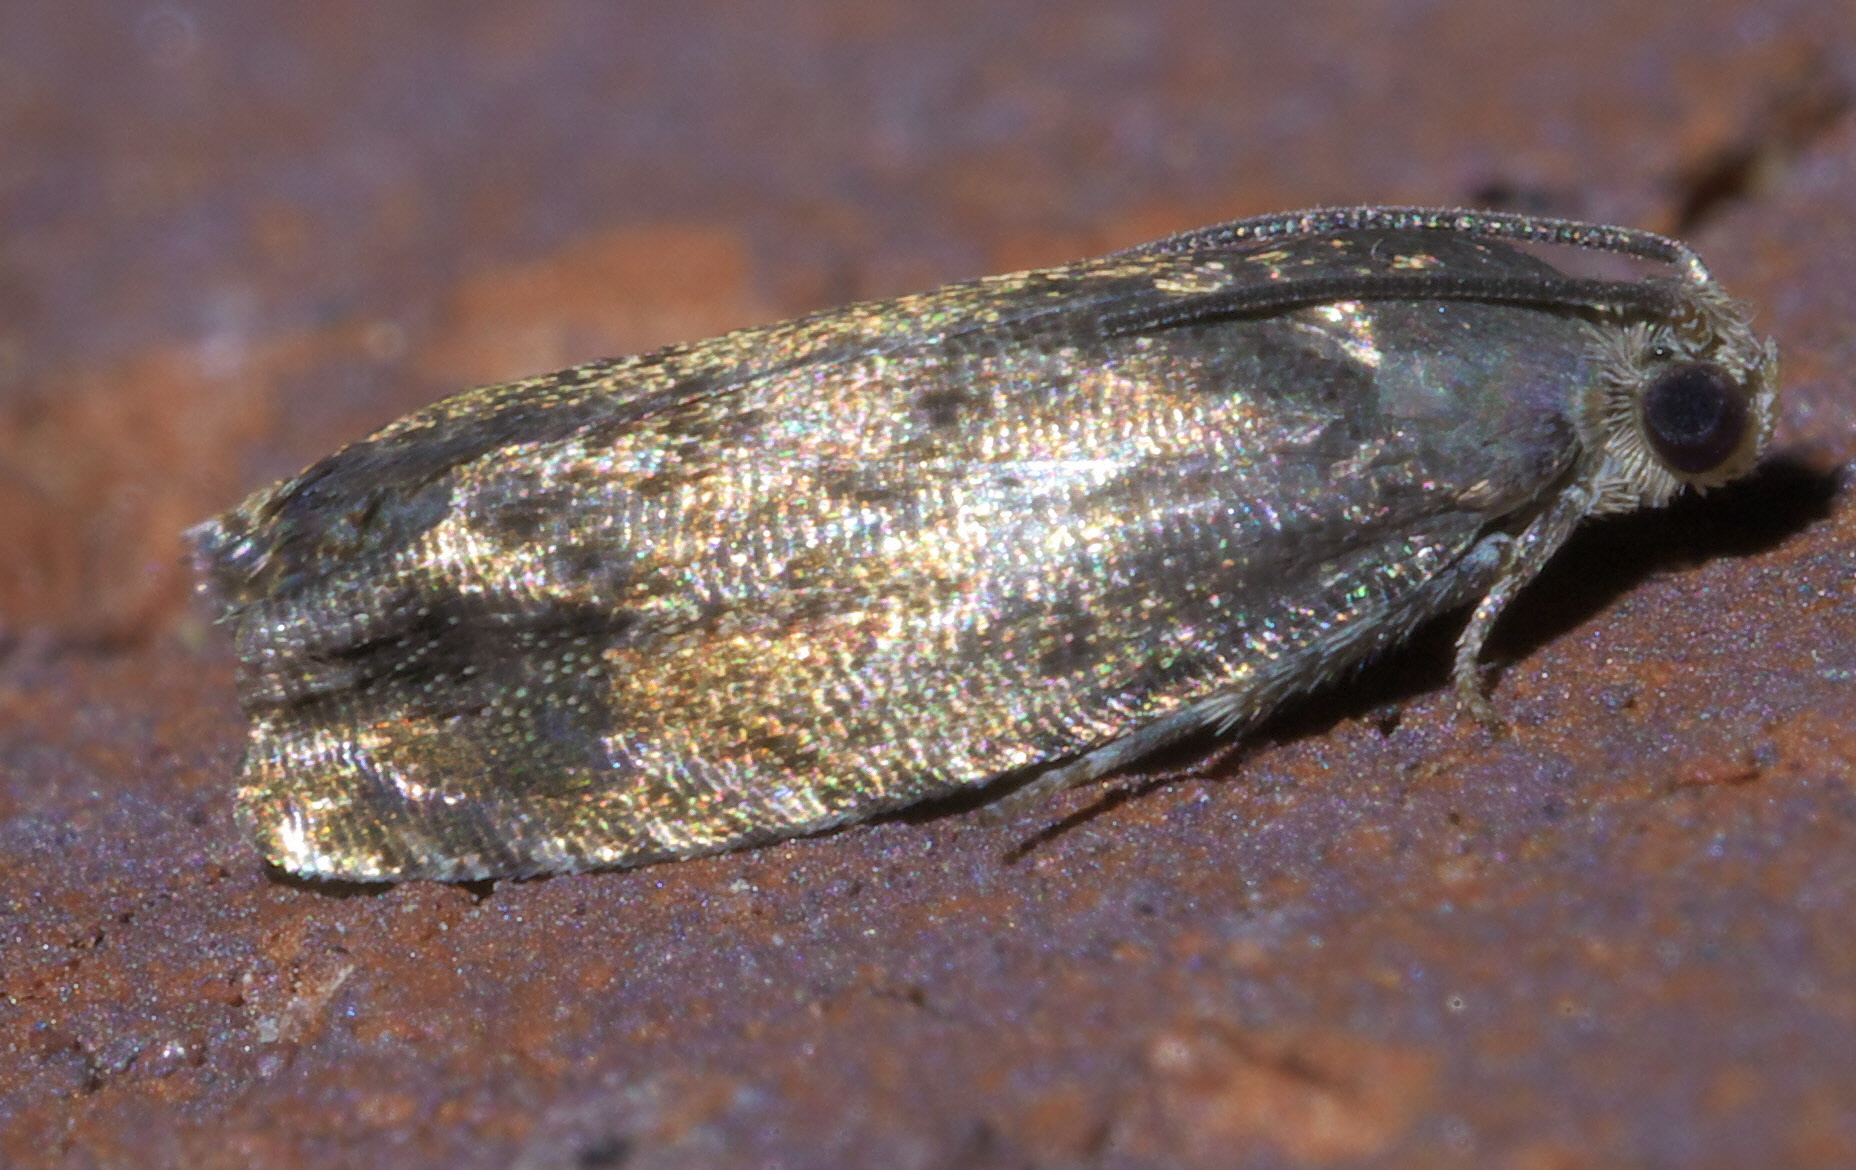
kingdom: Animalia
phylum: Arthropoda
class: Insecta
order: Lepidoptera
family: Tortricidae
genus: Cydia
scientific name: Cydia caryana
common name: Hickory shuckworm moth
